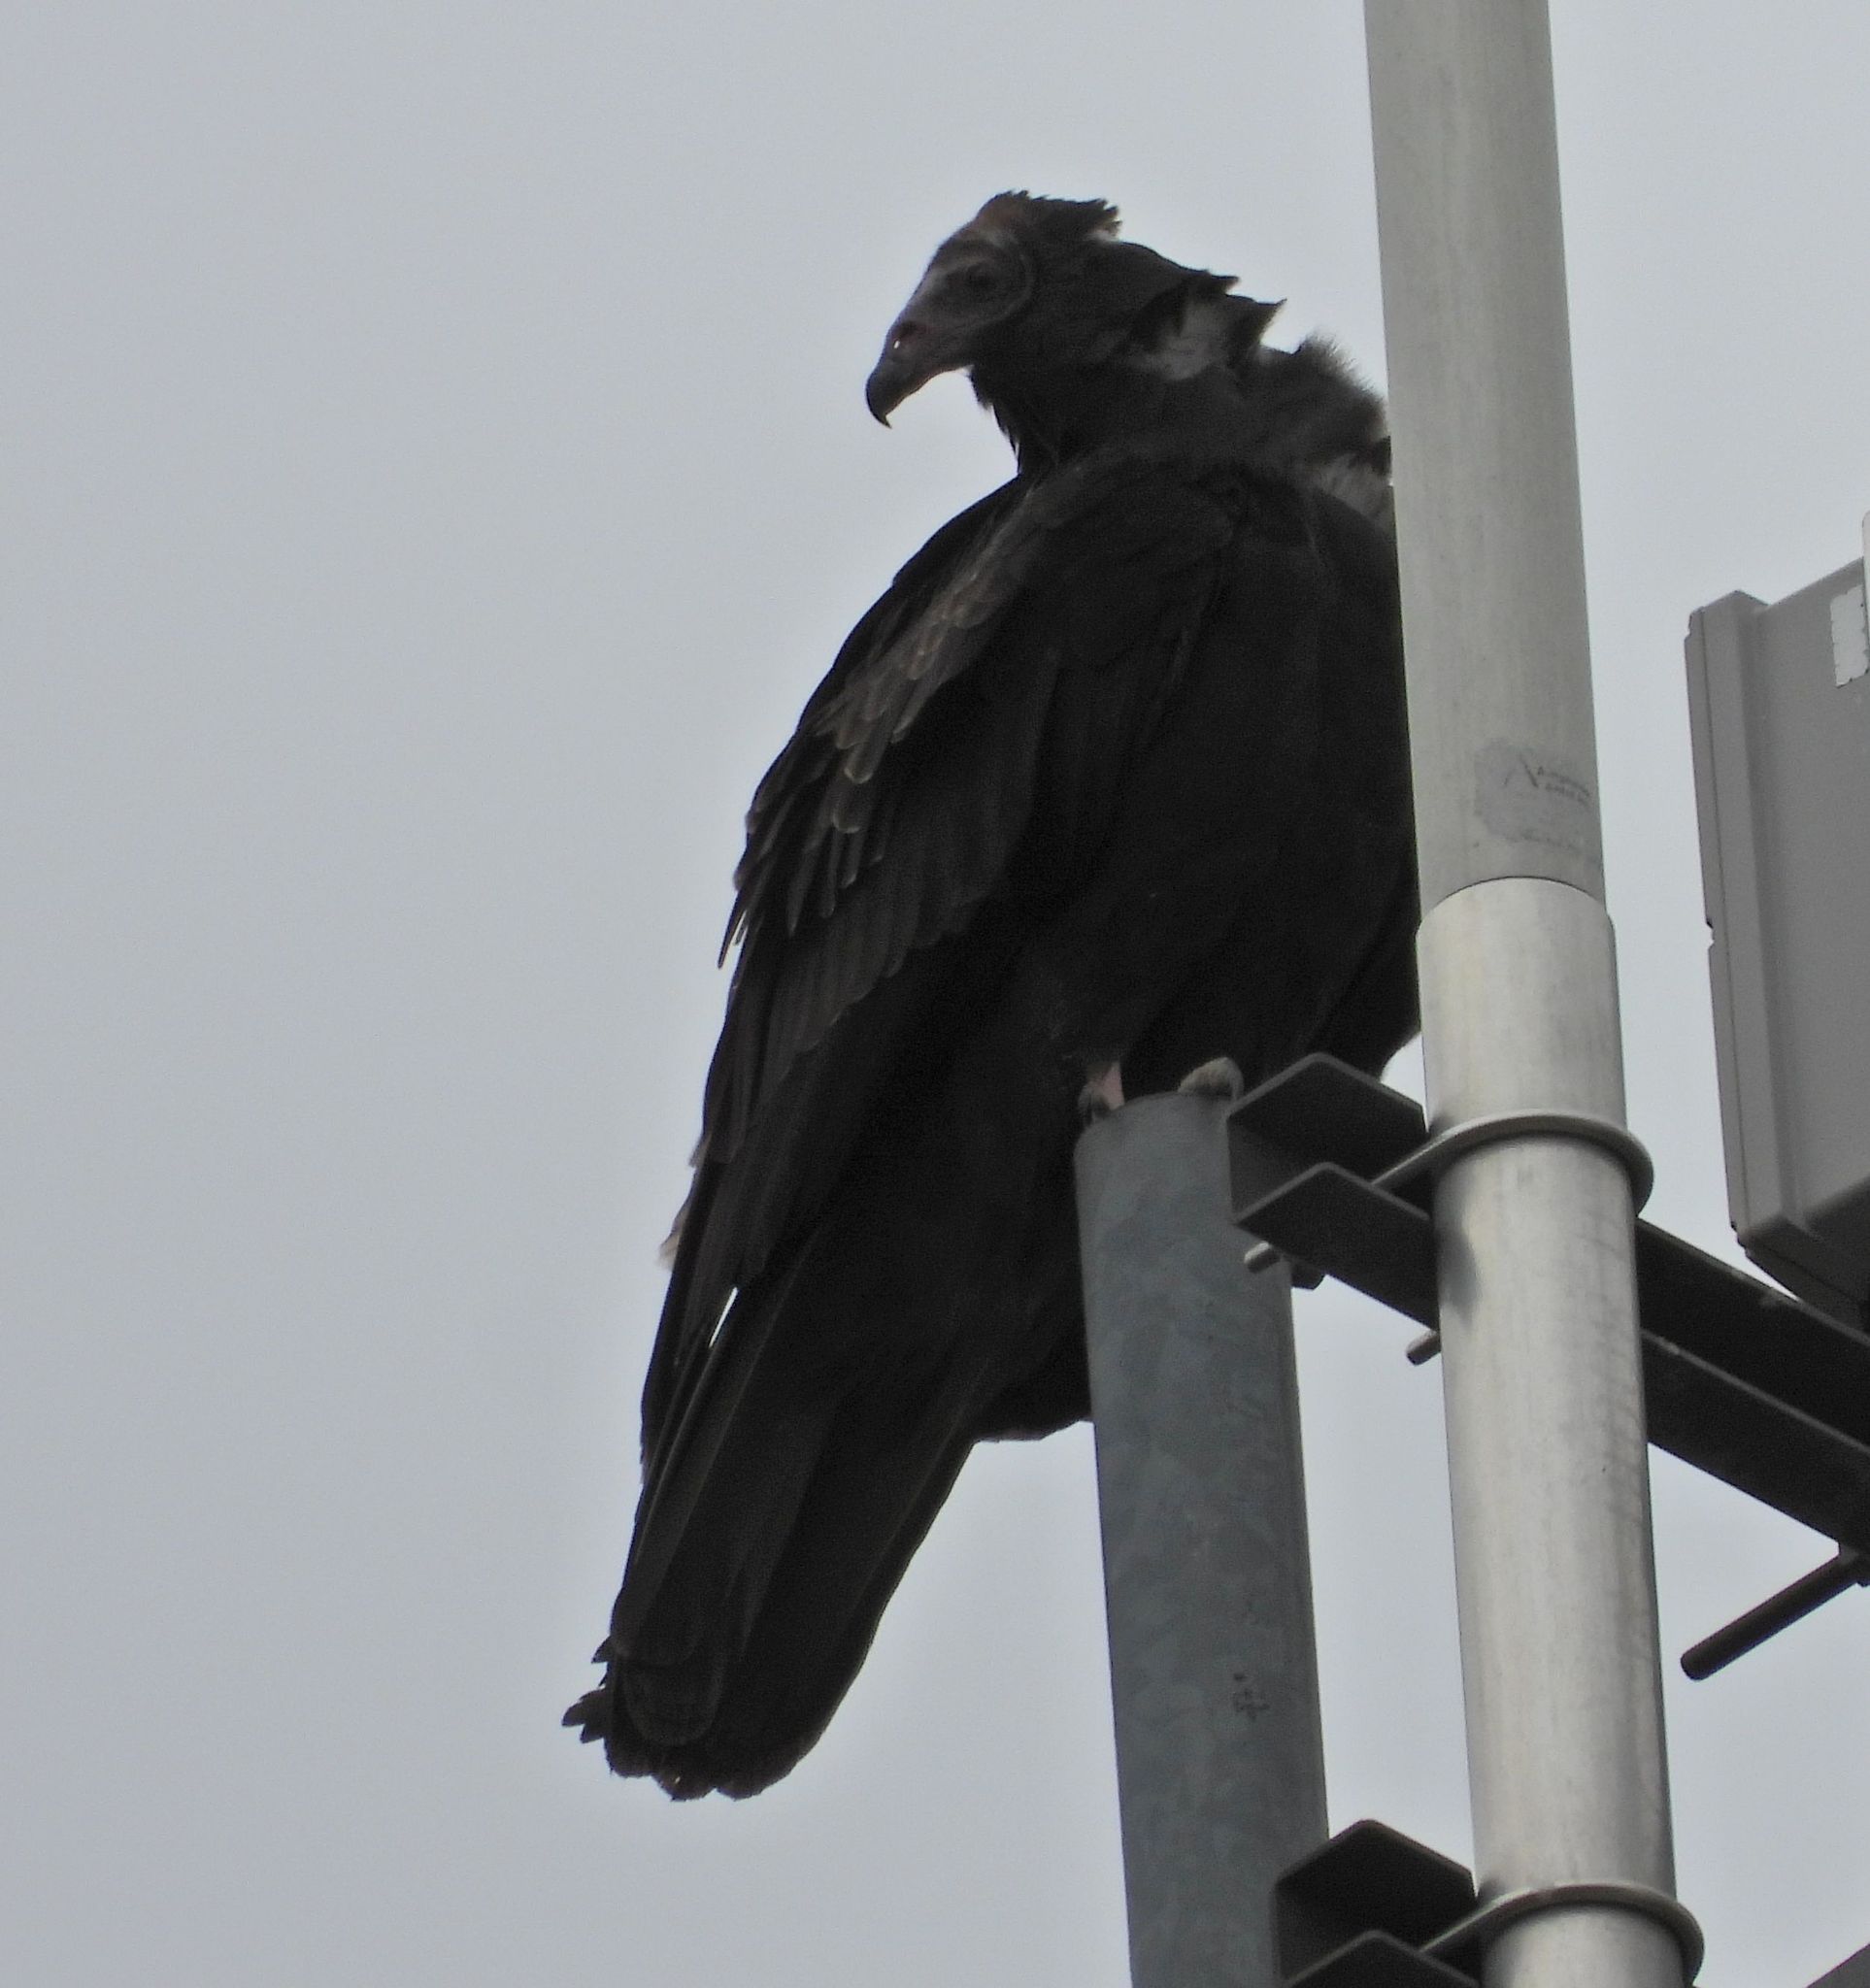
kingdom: Animalia
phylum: Chordata
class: Aves
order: Accipitriformes
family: Cathartidae
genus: Cathartes
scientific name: Cathartes aura
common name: Turkey vulture
